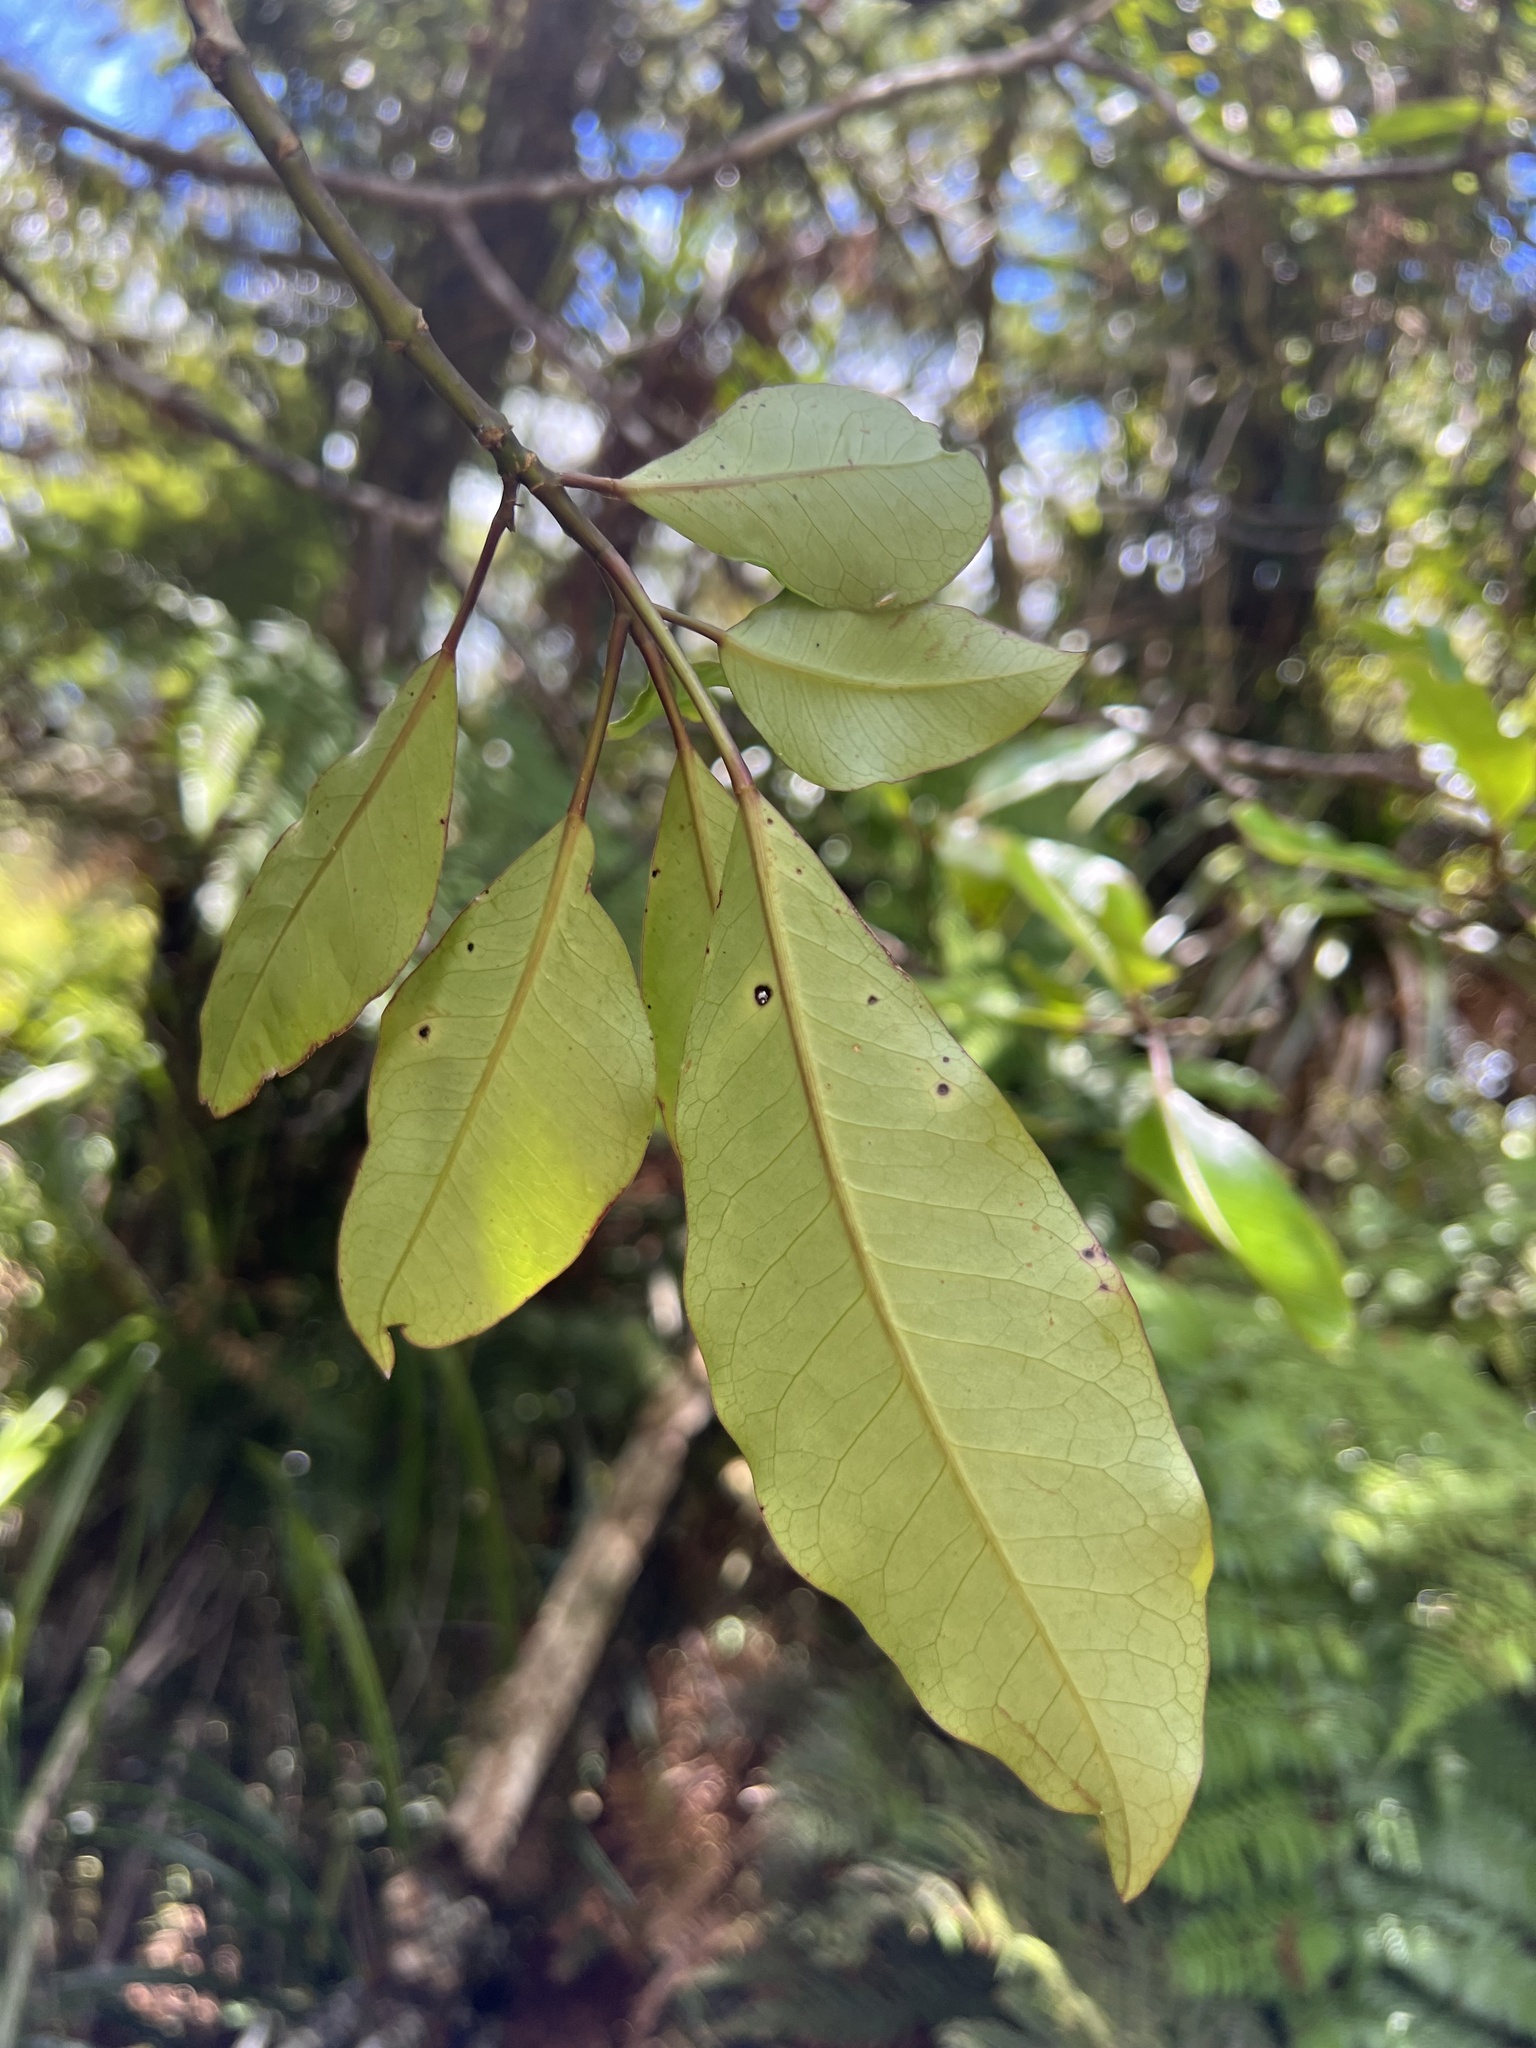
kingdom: Plantae
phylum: Tracheophyta
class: Magnoliopsida
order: Apiales
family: Araliaceae
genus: Raukaua
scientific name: Raukaua edgerleyi
